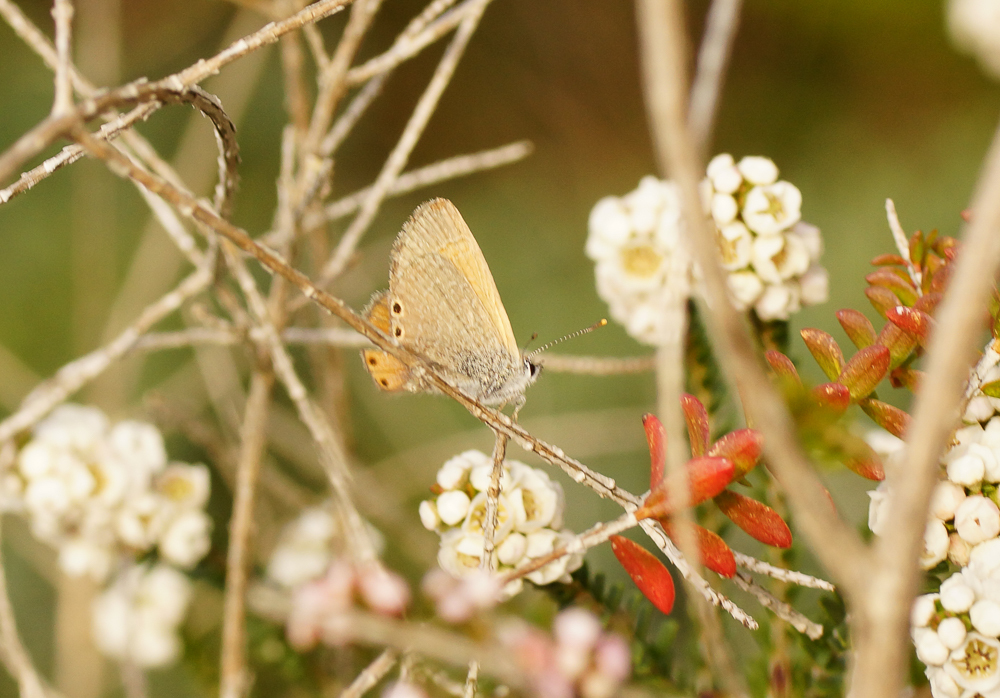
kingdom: Animalia
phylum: Arthropoda
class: Insecta
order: Lepidoptera
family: Lycaenidae
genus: Nacaduba
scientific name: Nacaduba biocellata
